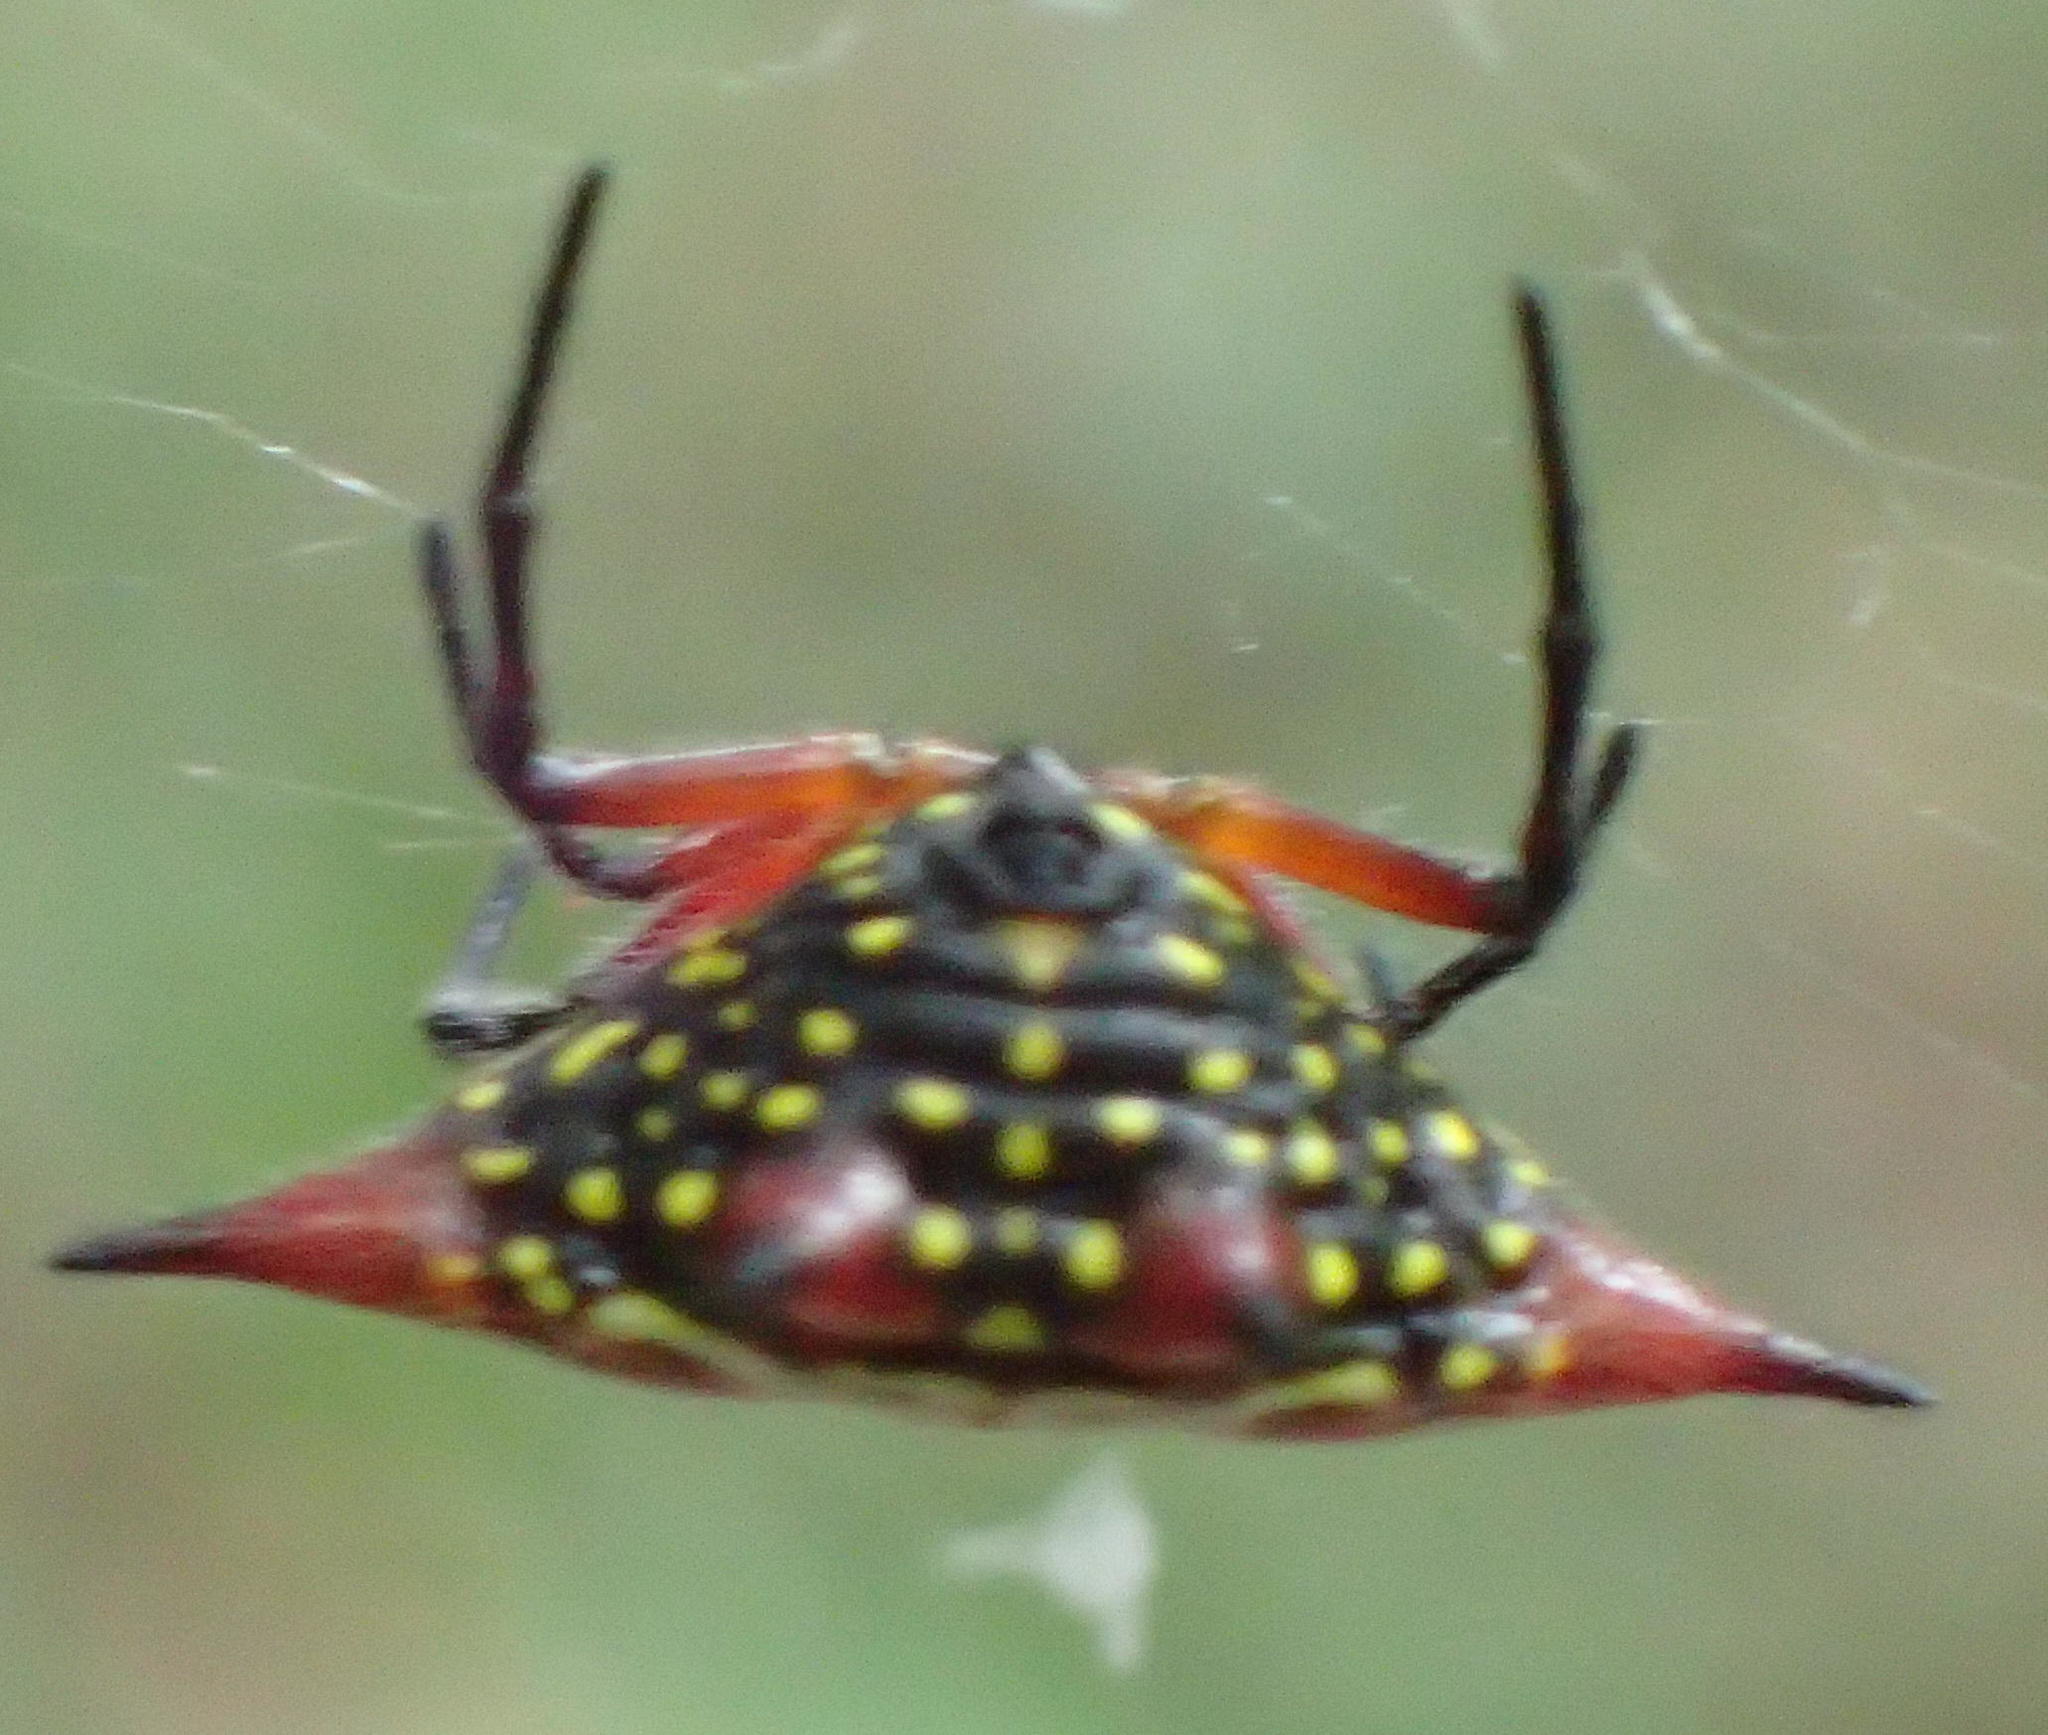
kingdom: Animalia
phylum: Arthropoda
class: Arachnida
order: Araneae
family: Araneidae
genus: Gasteracantha
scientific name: Gasteracantha sanguinolenta
